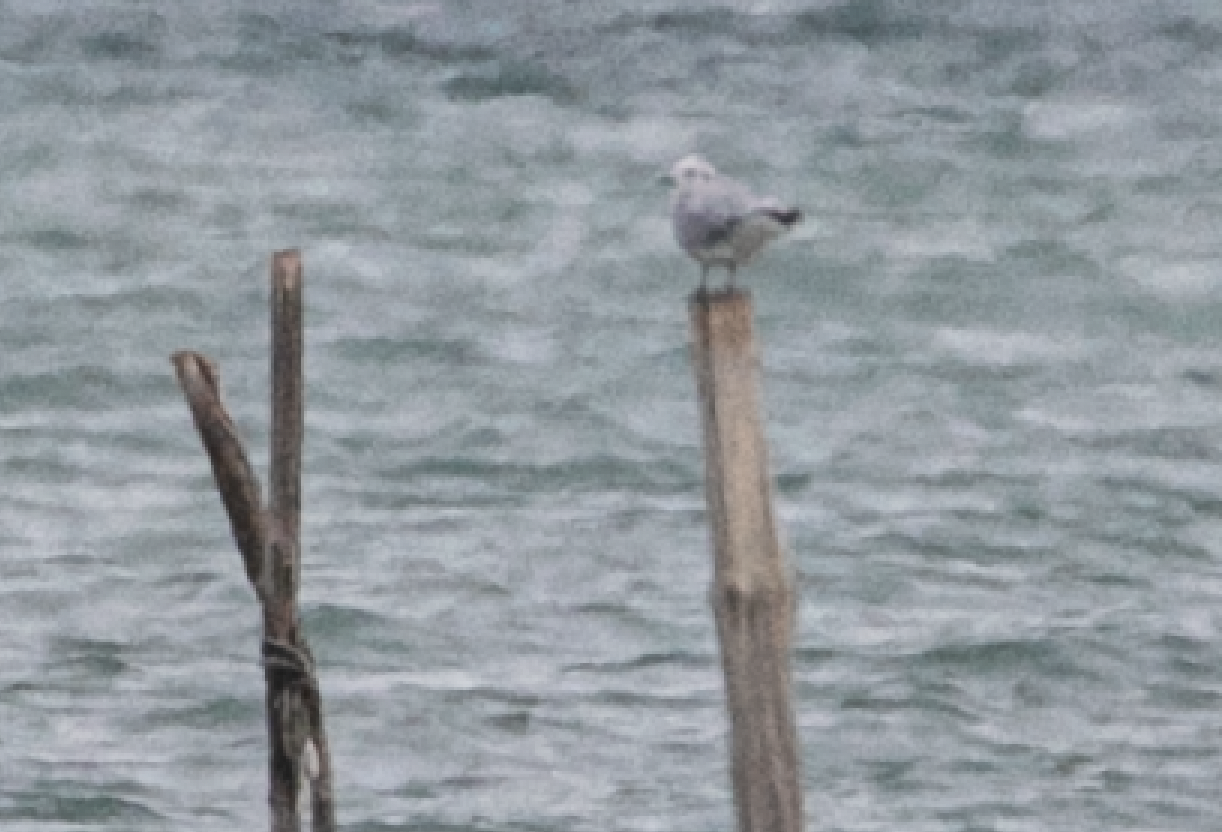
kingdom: Animalia
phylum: Chordata
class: Aves
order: Charadriiformes
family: Laridae
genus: Hydrocoloeus
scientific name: Hydrocoloeus minutus
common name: Little gull
